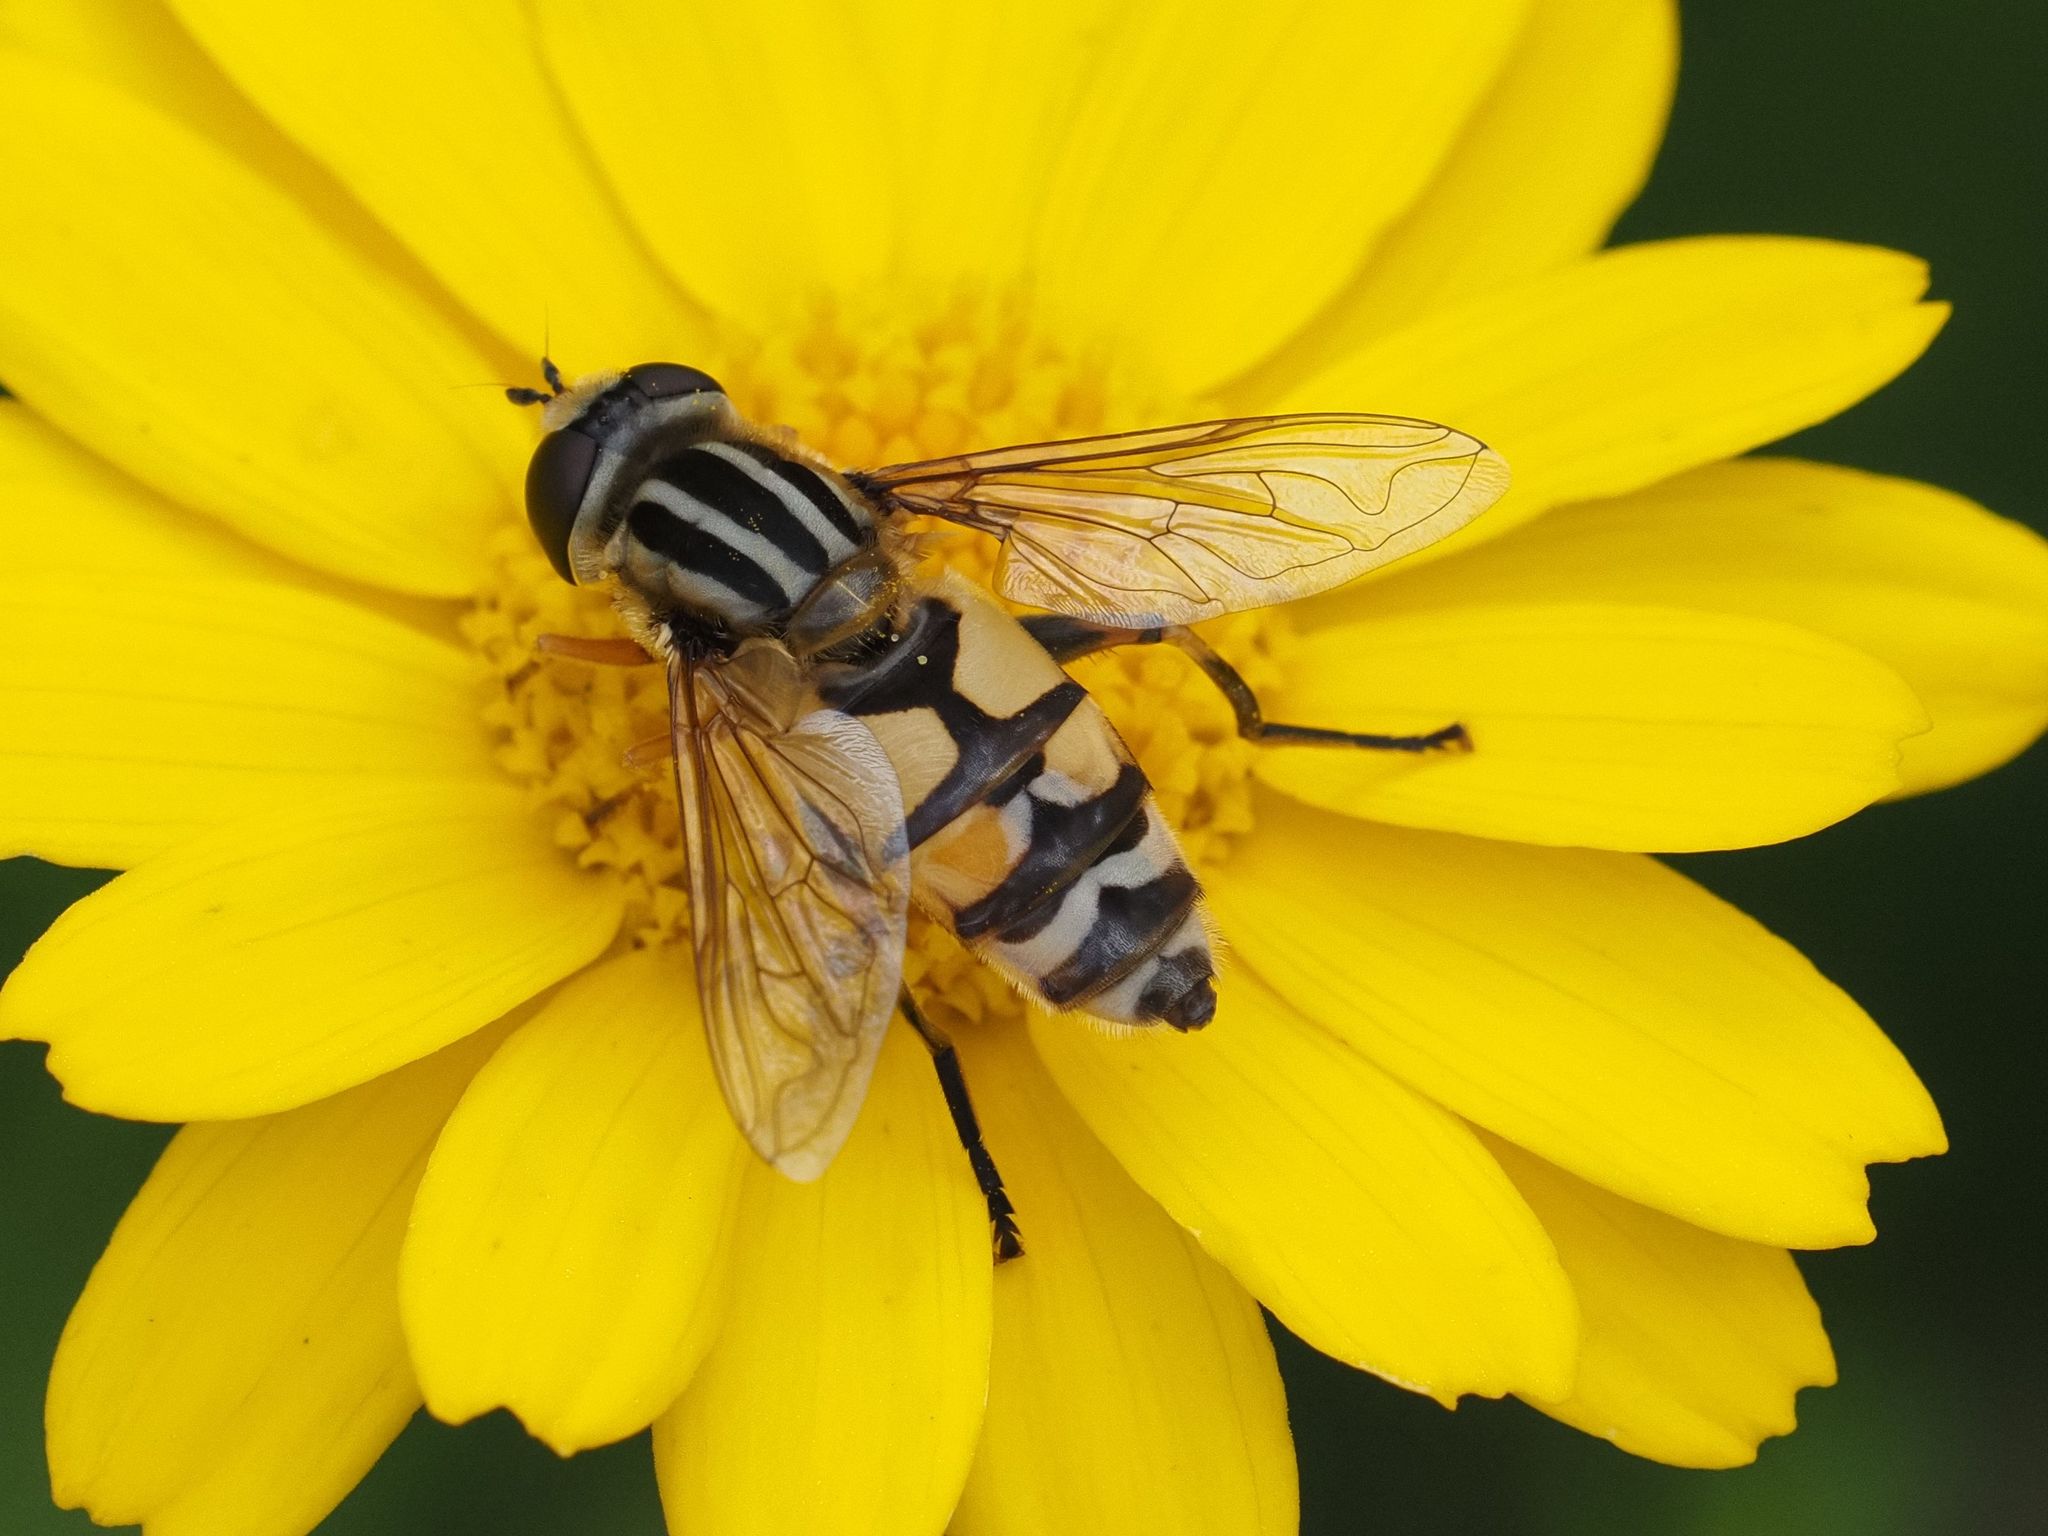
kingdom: Animalia
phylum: Arthropoda
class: Insecta
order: Diptera
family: Syrphidae
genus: Helophilus
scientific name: Helophilus trivittatus
